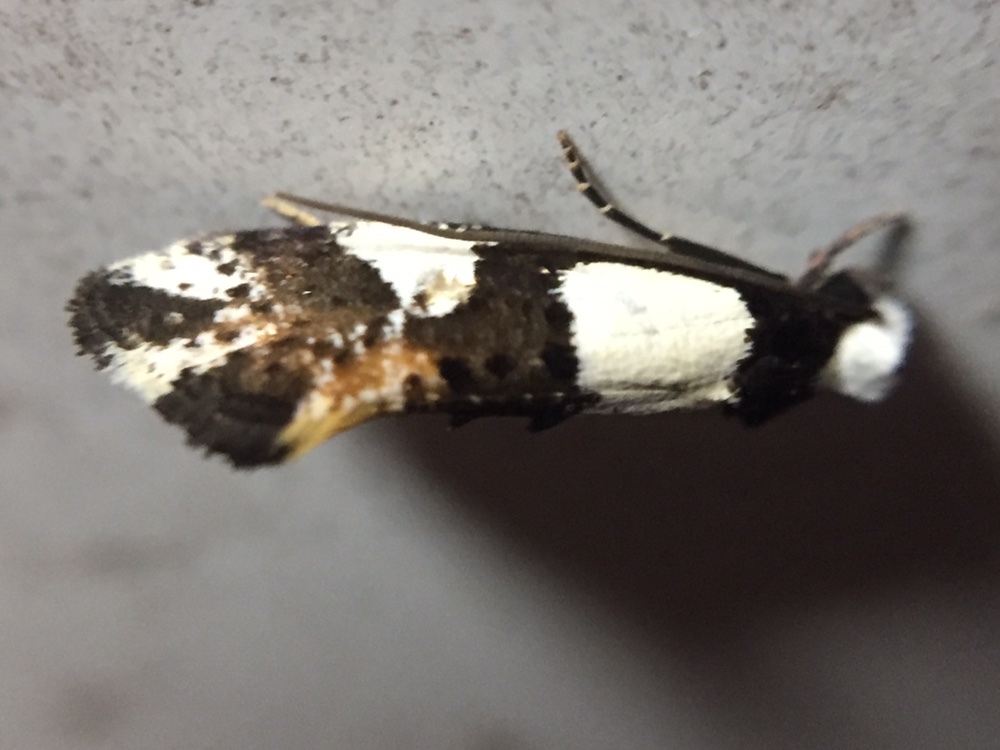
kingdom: Animalia
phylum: Arthropoda
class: Insecta
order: Lepidoptera
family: Tineidae
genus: Monopis
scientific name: Monopis icterogastra
